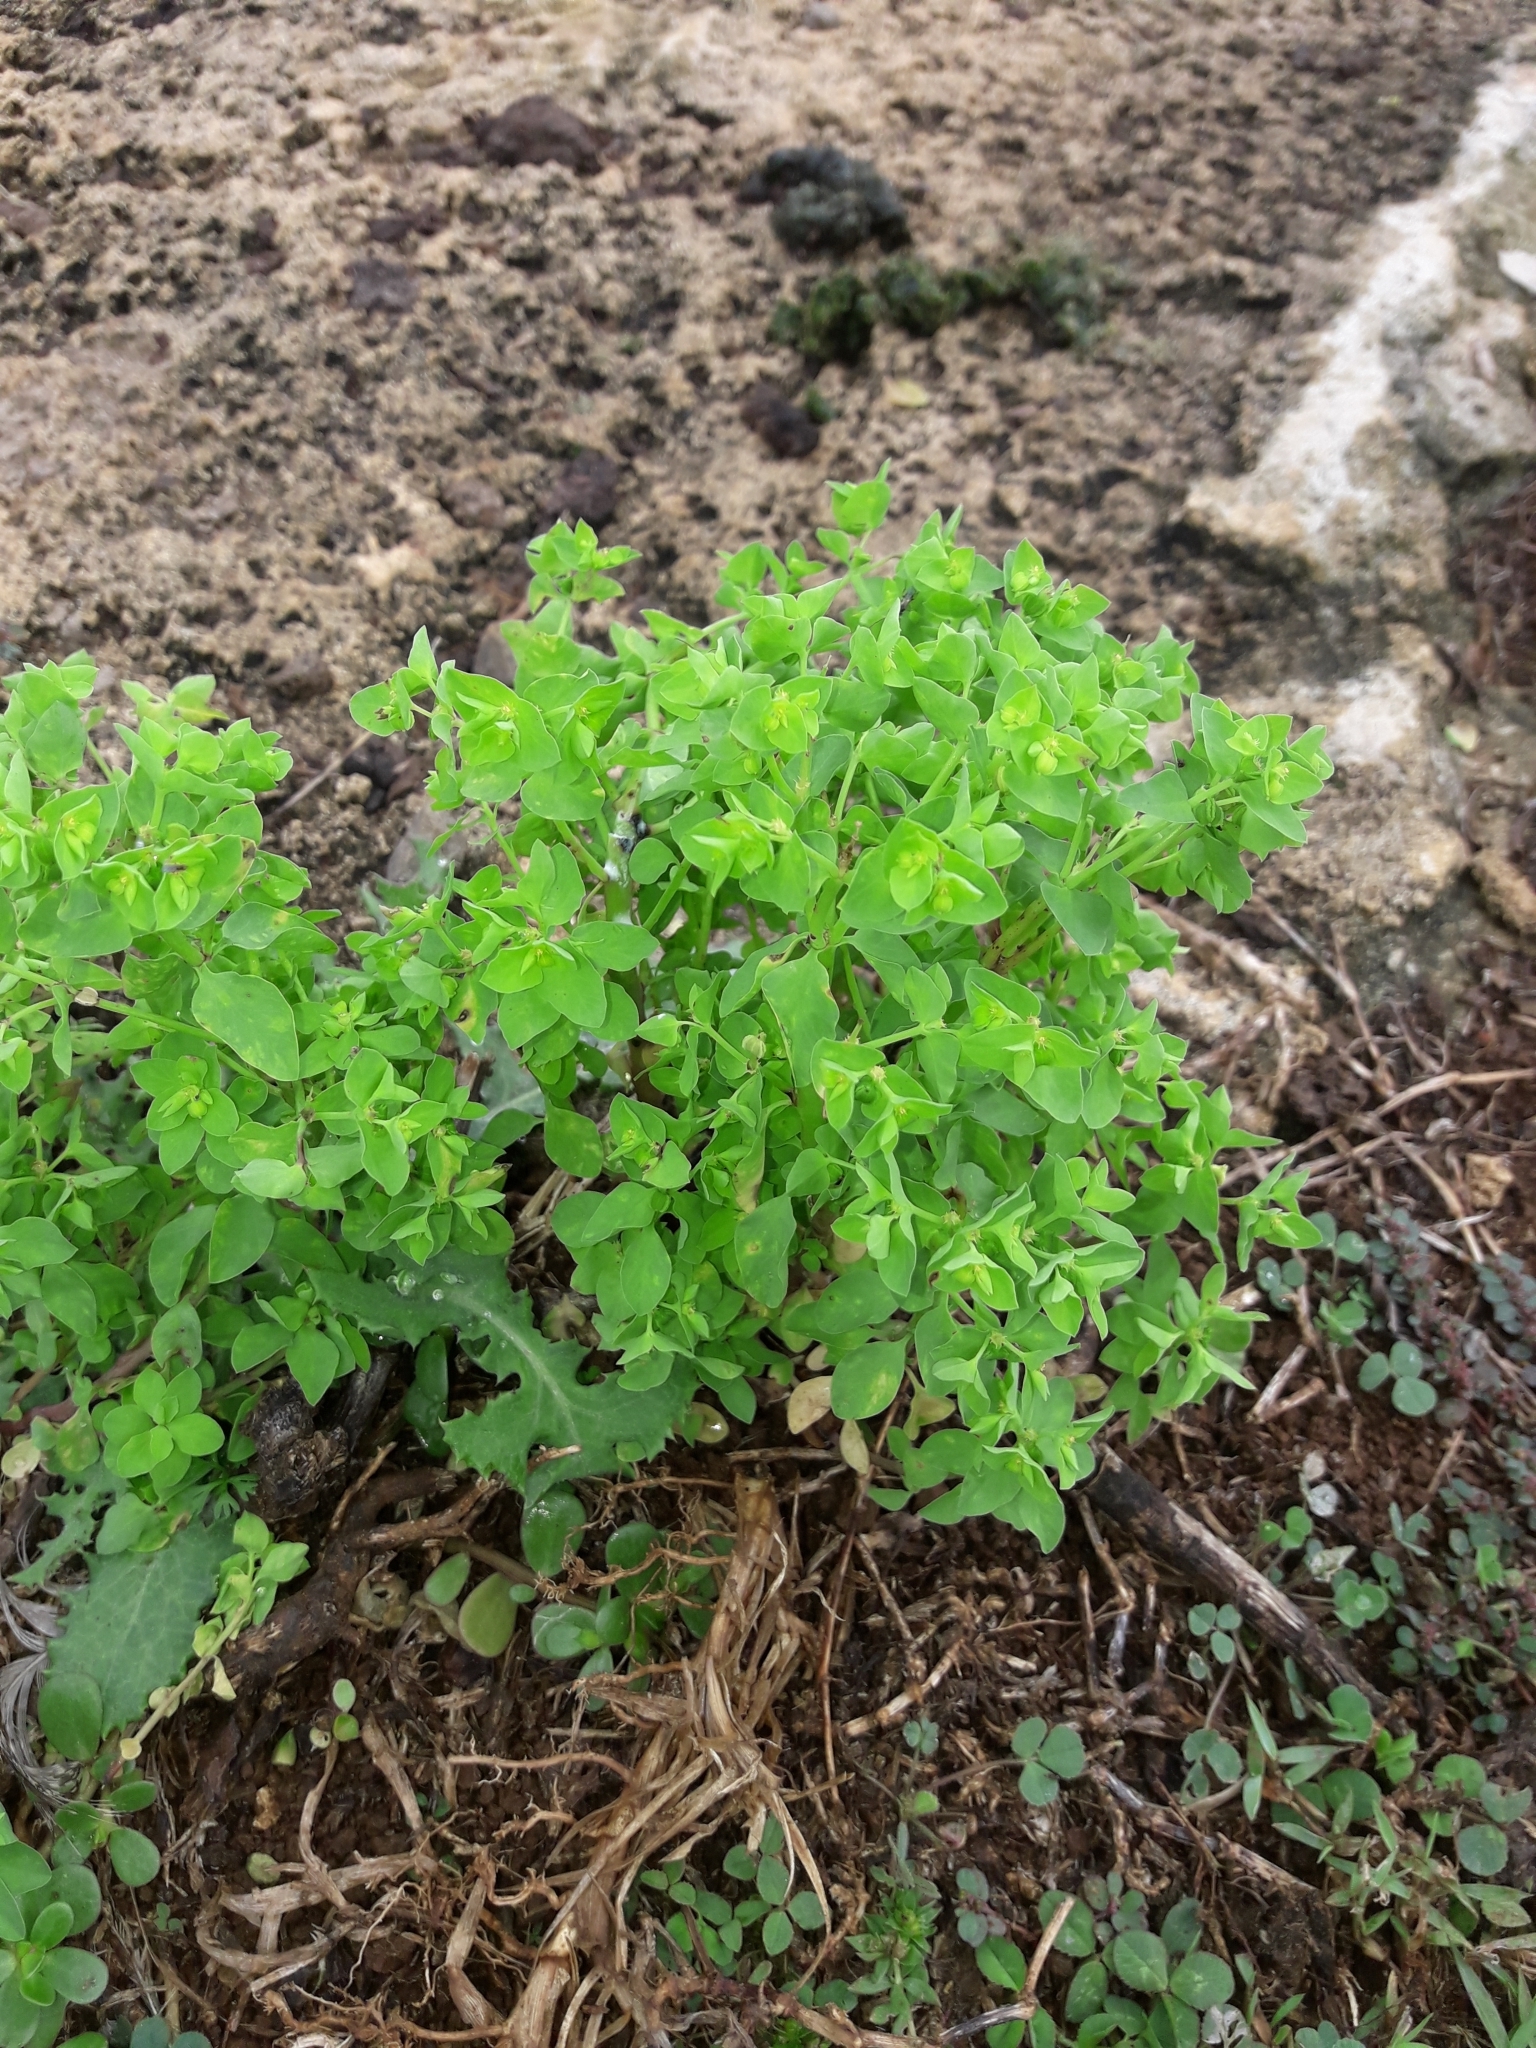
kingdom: Plantae
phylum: Tracheophyta
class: Magnoliopsida
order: Malpighiales
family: Euphorbiaceae
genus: Euphorbia
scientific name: Euphorbia peplus
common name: Petty spurge
